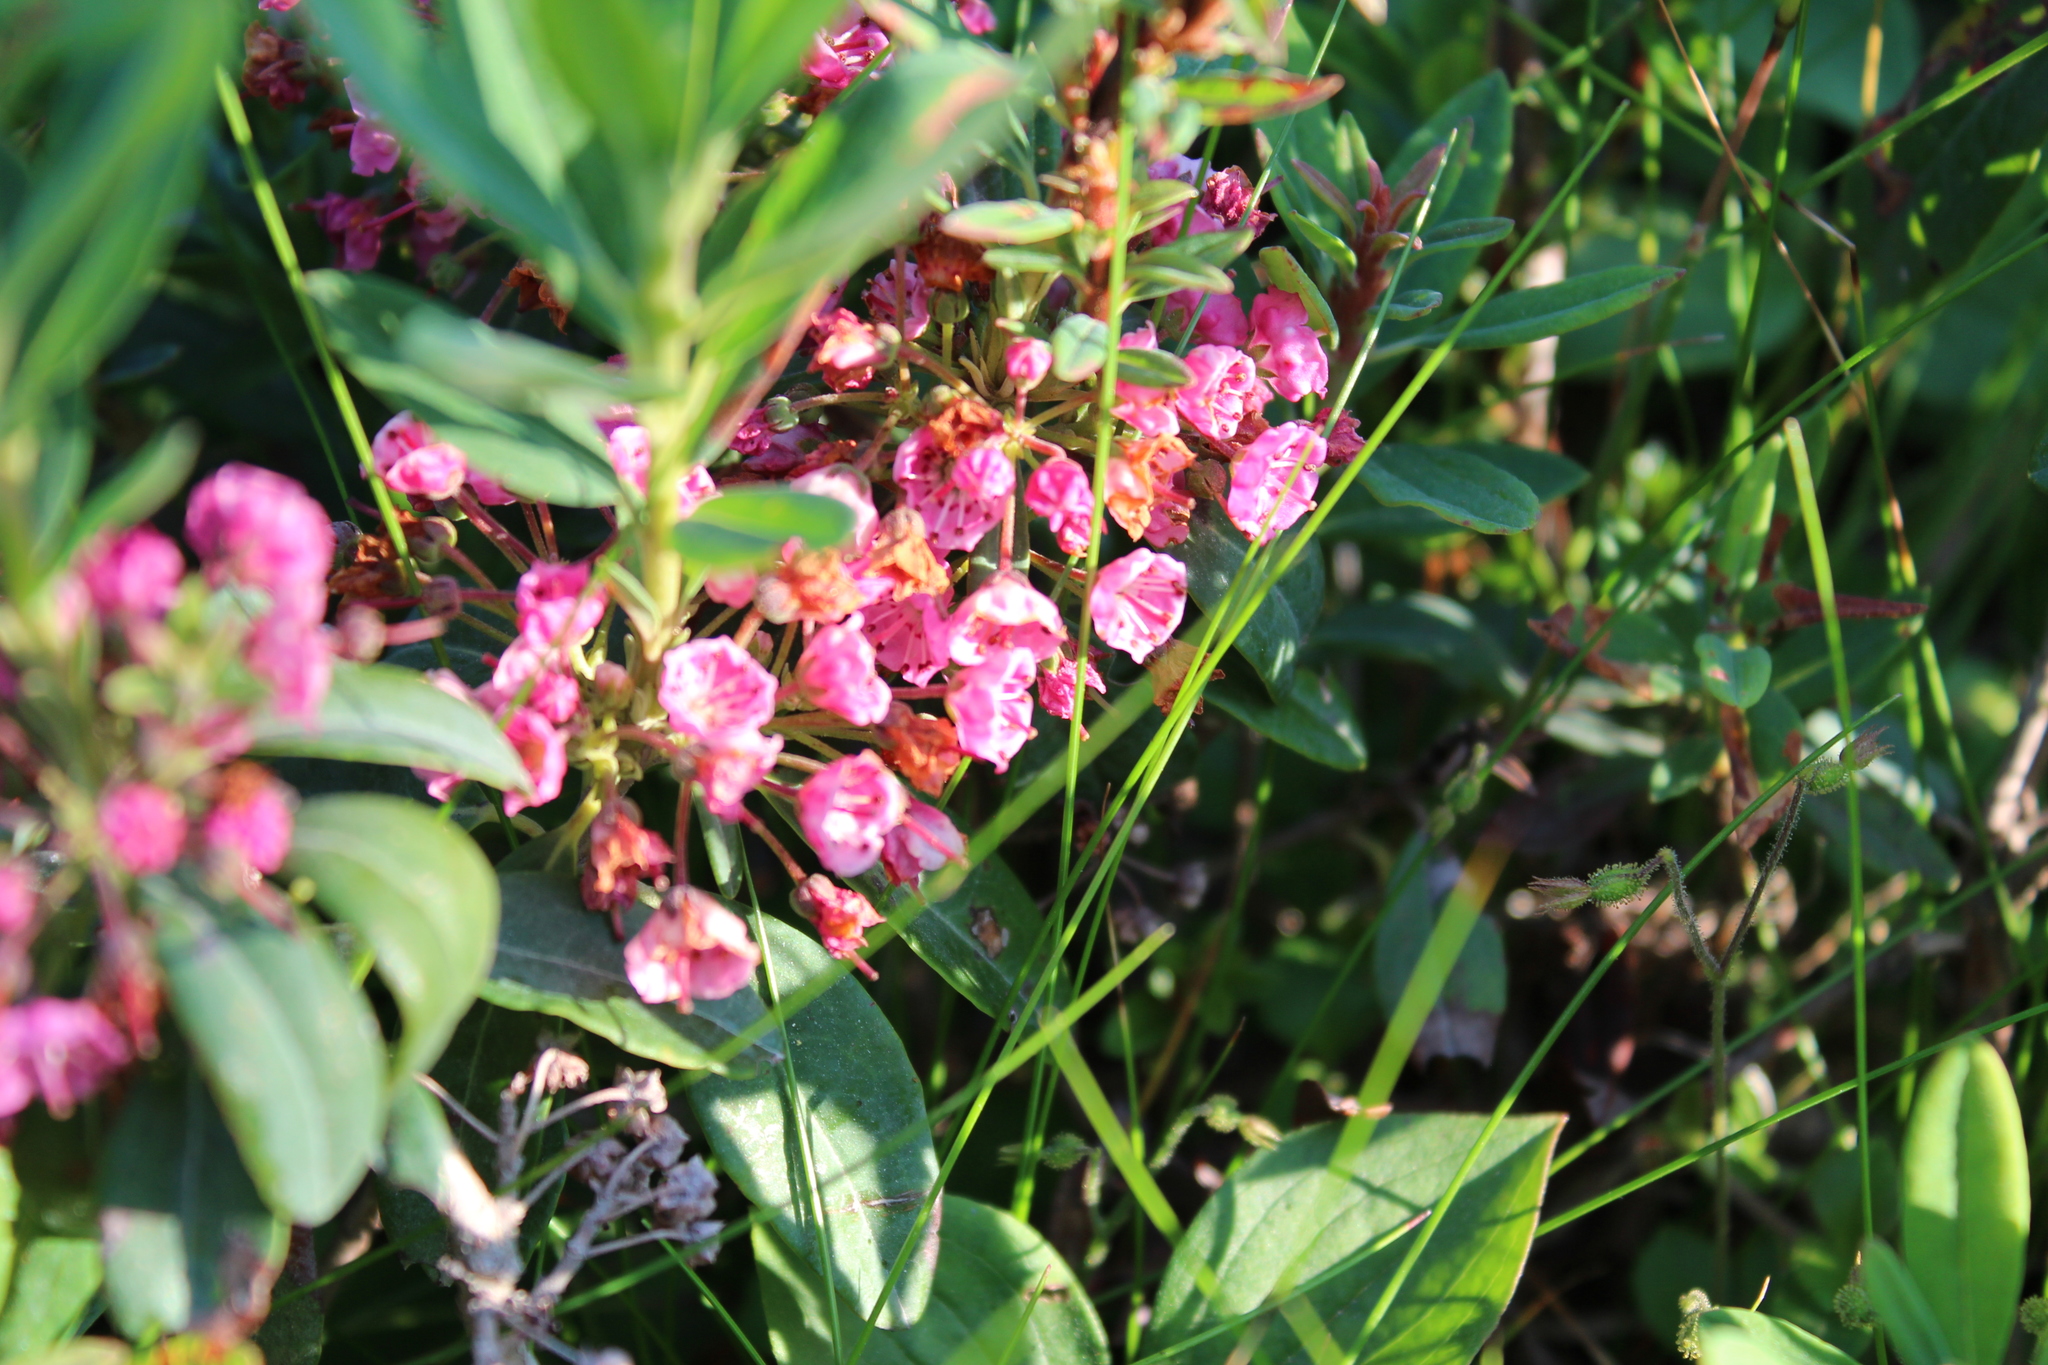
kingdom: Plantae
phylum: Tracheophyta
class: Magnoliopsida
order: Ericales
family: Ericaceae
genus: Kalmia
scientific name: Kalmia angustifolia
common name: Sheep-laurel
